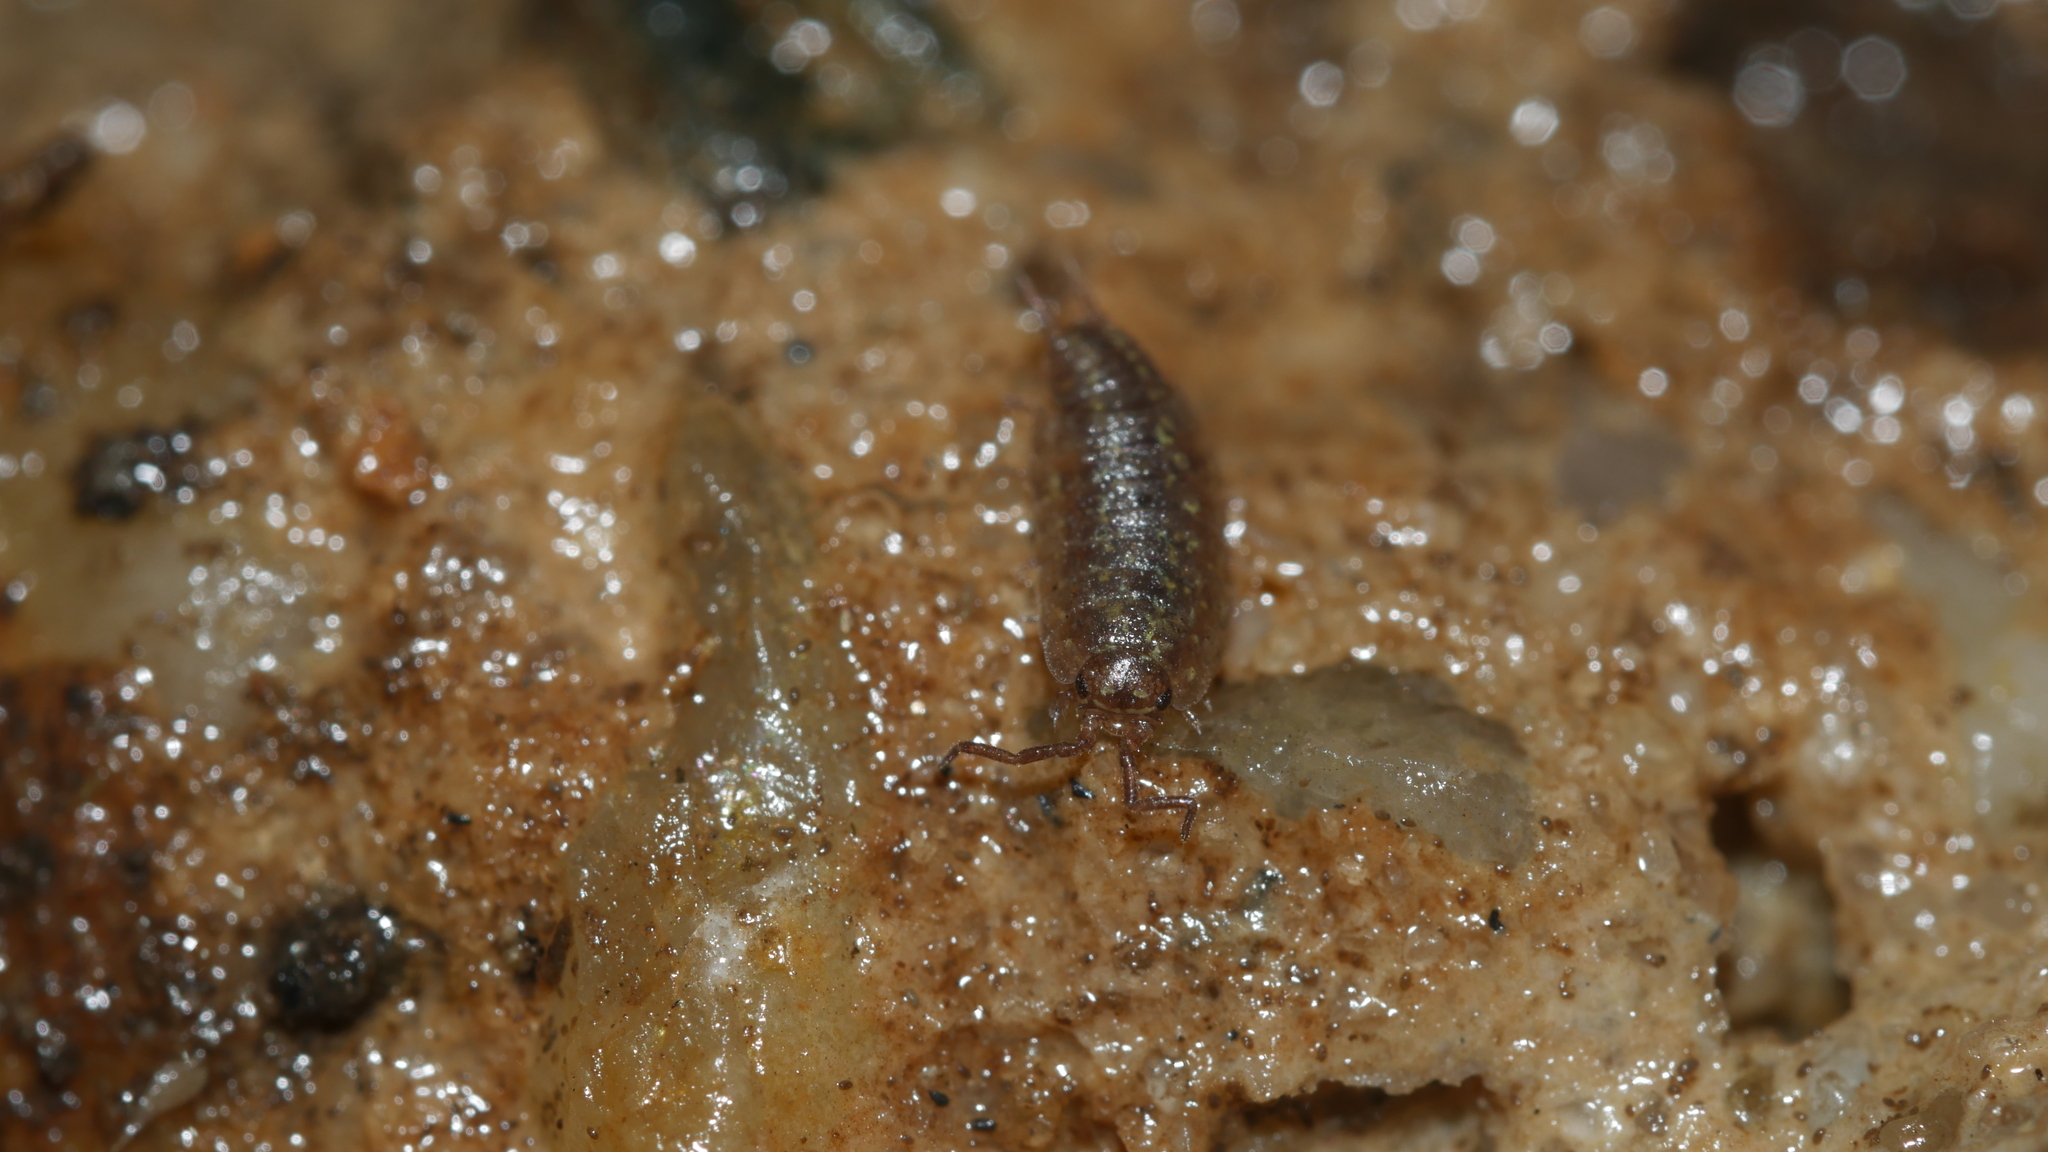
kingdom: Animalia
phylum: Arthropoda
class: Malacostraca
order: Isopoda
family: Halophilosciidae
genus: Littorophiloscia
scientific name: Littorophiloscia vittata
